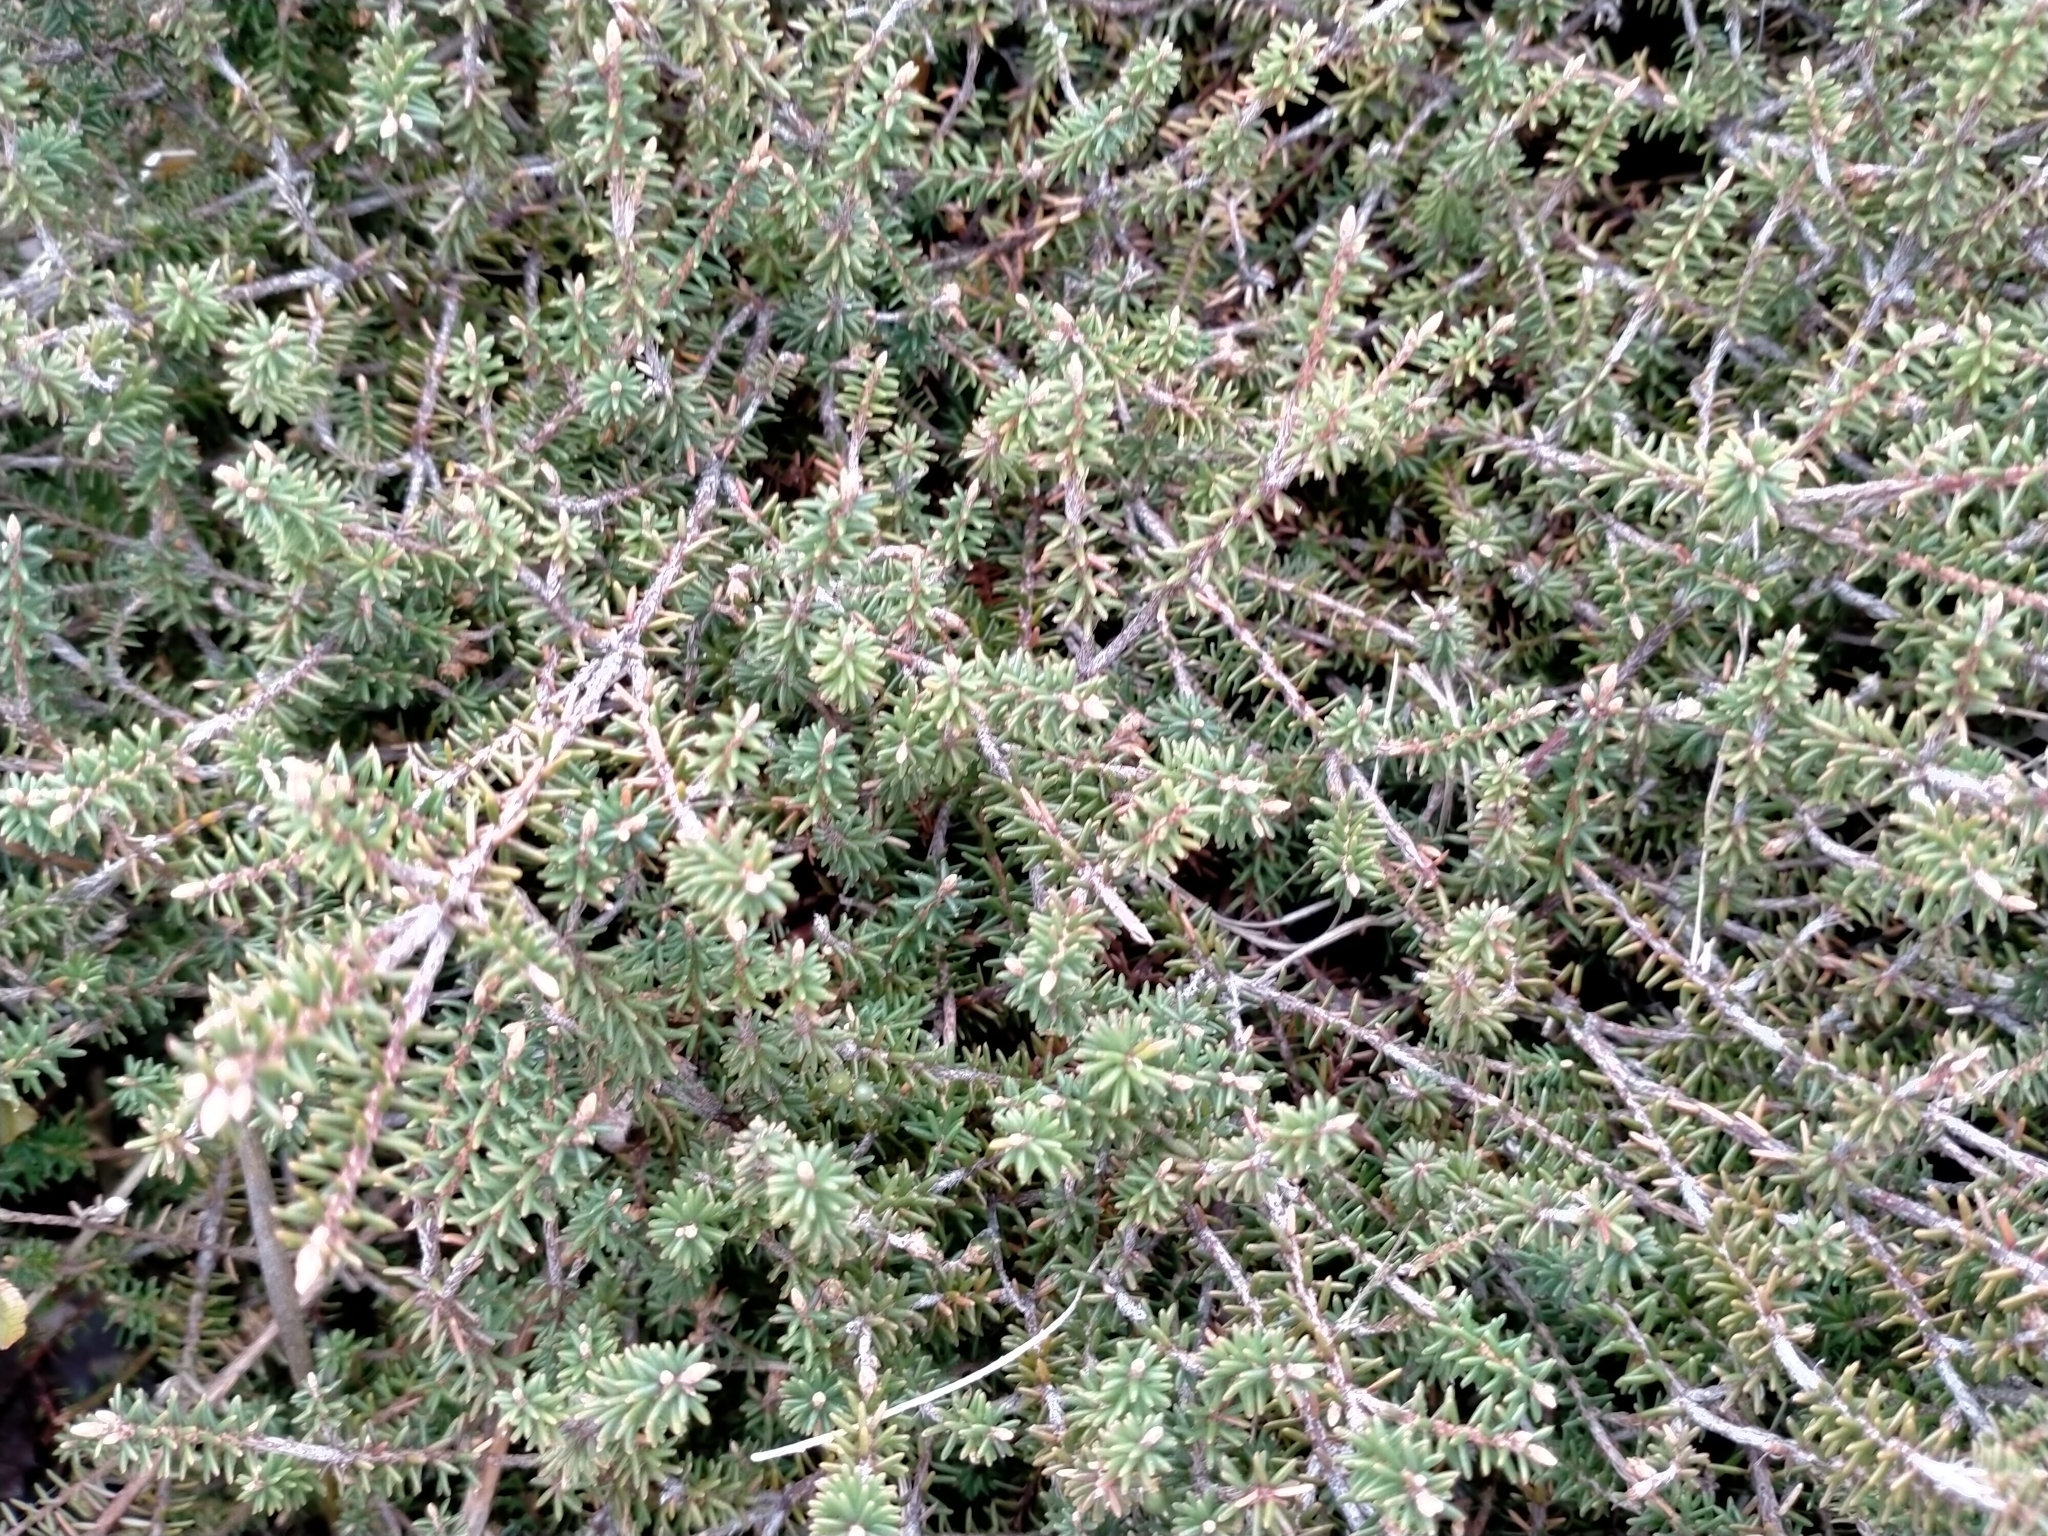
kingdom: Plantae
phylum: Tracheophyta
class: Magnoliopsida
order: Ericales
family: Ericaceae
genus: Androstoma
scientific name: Androstoma empetrifolia
